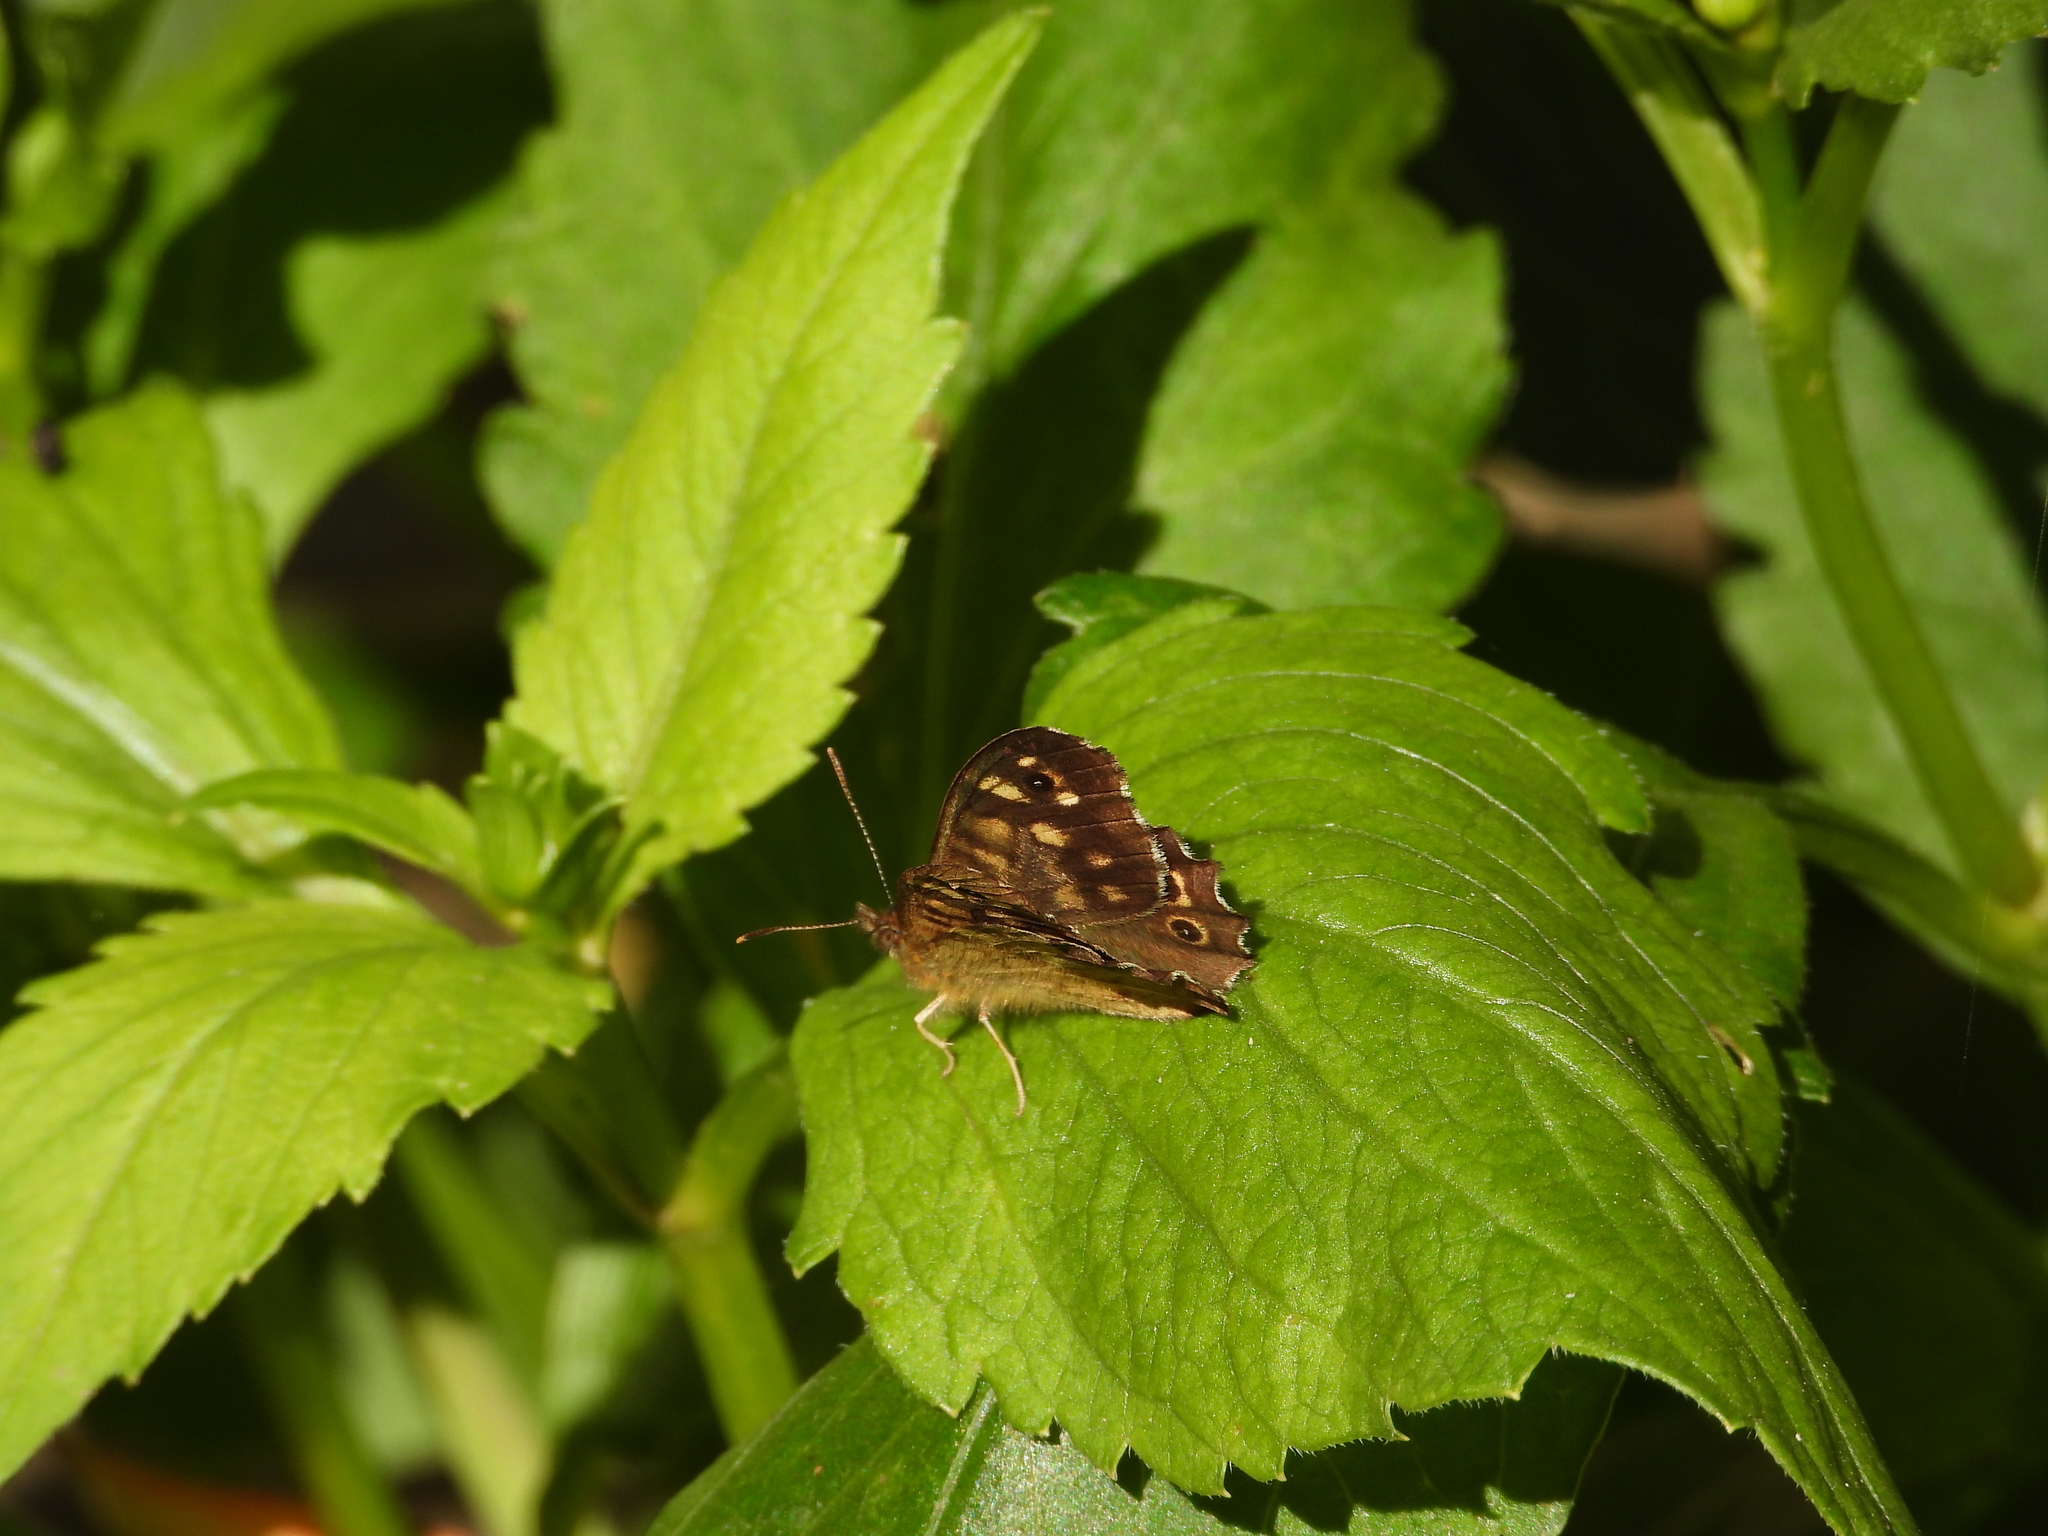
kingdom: Animalia
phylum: Arthropoda
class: Insecta
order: Lepidoptera
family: Nymphalidae
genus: Pararge
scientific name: Pararge aegeria
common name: Speckled wood
